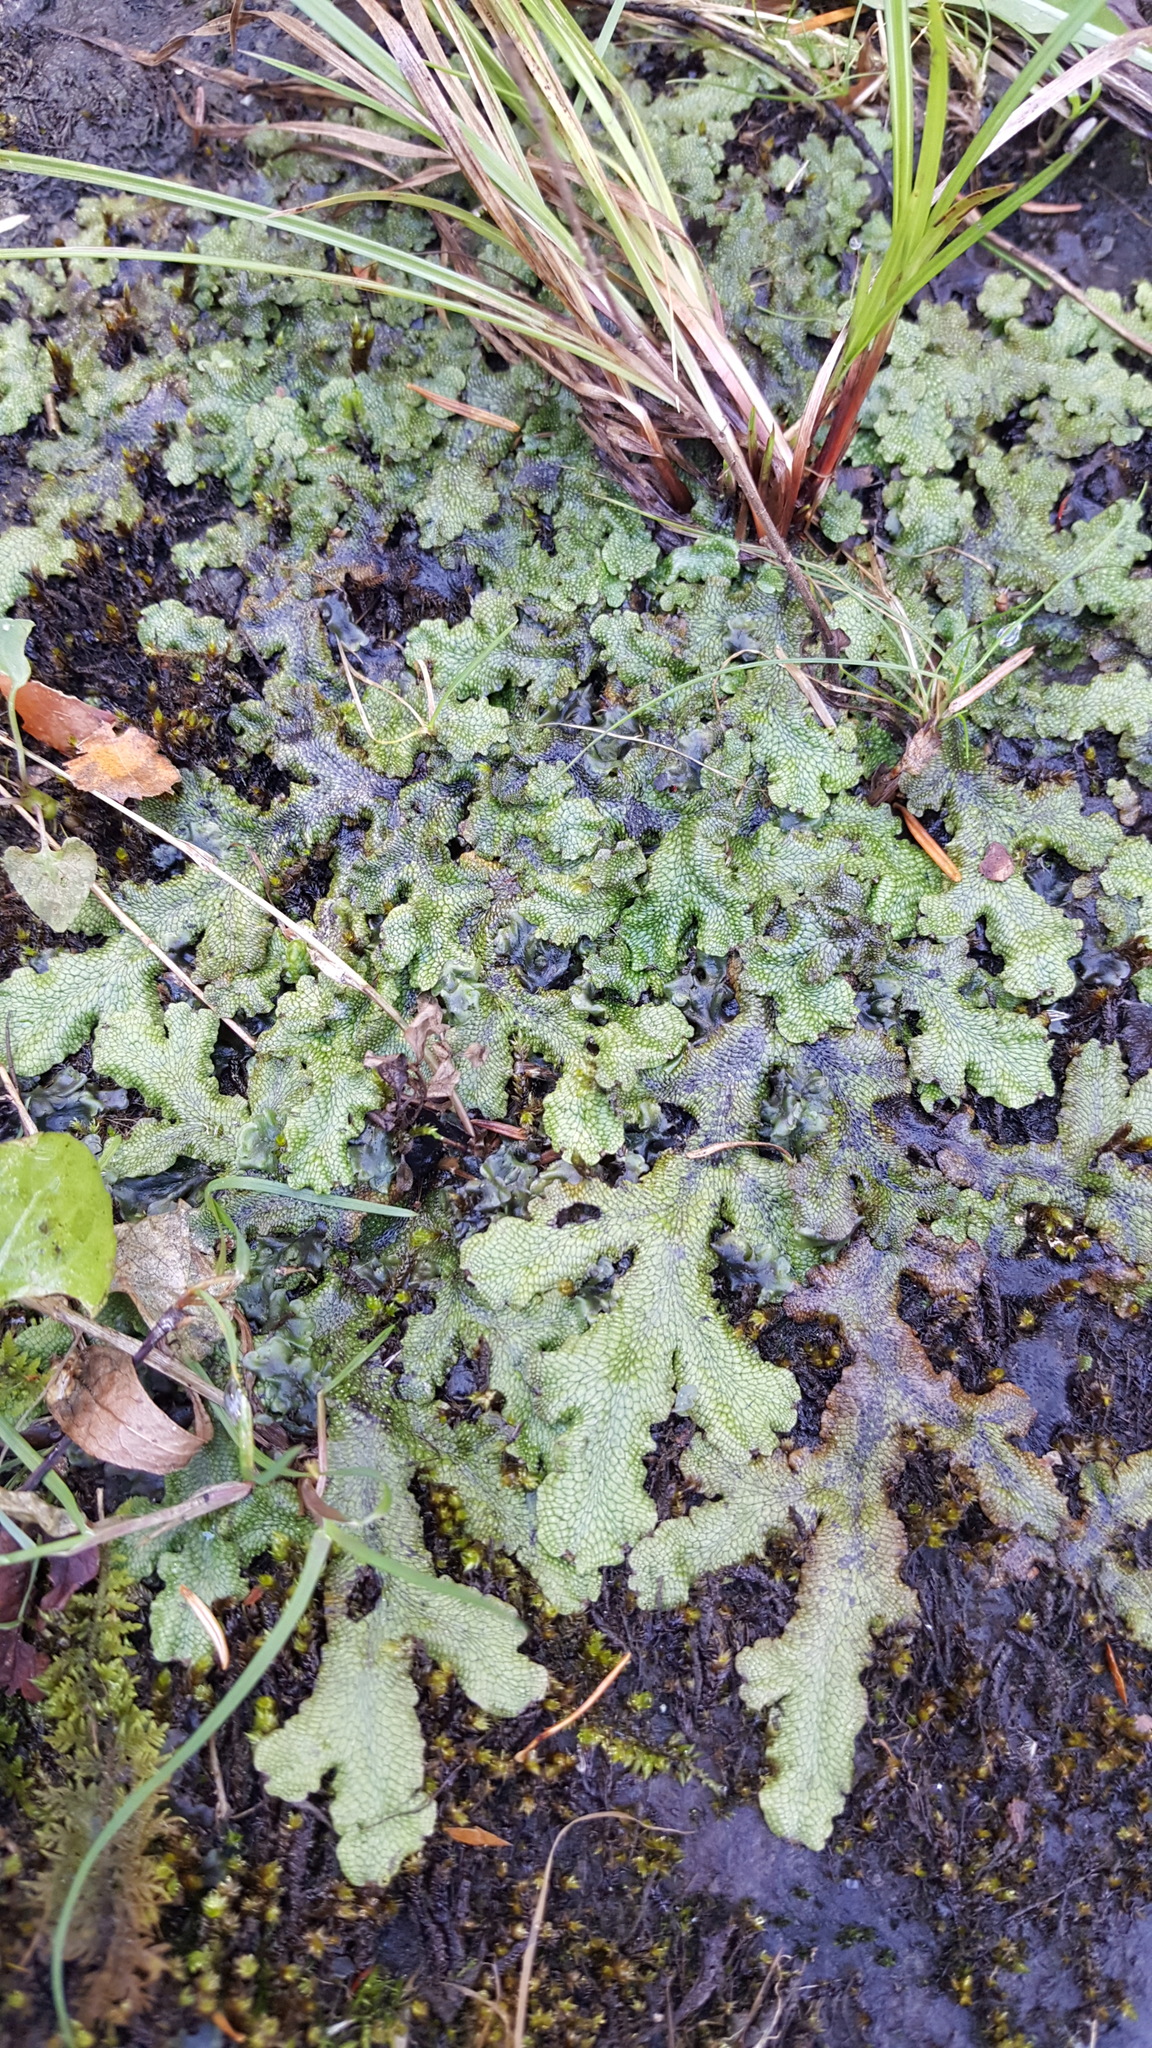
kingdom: Plantae
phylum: Marchantiophyta
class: Marchantiopsida
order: Marchantiales
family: Conocephalaceae
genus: Conocephalum
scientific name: Conocephalum salebrosum
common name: Cat-tongue liverwort
